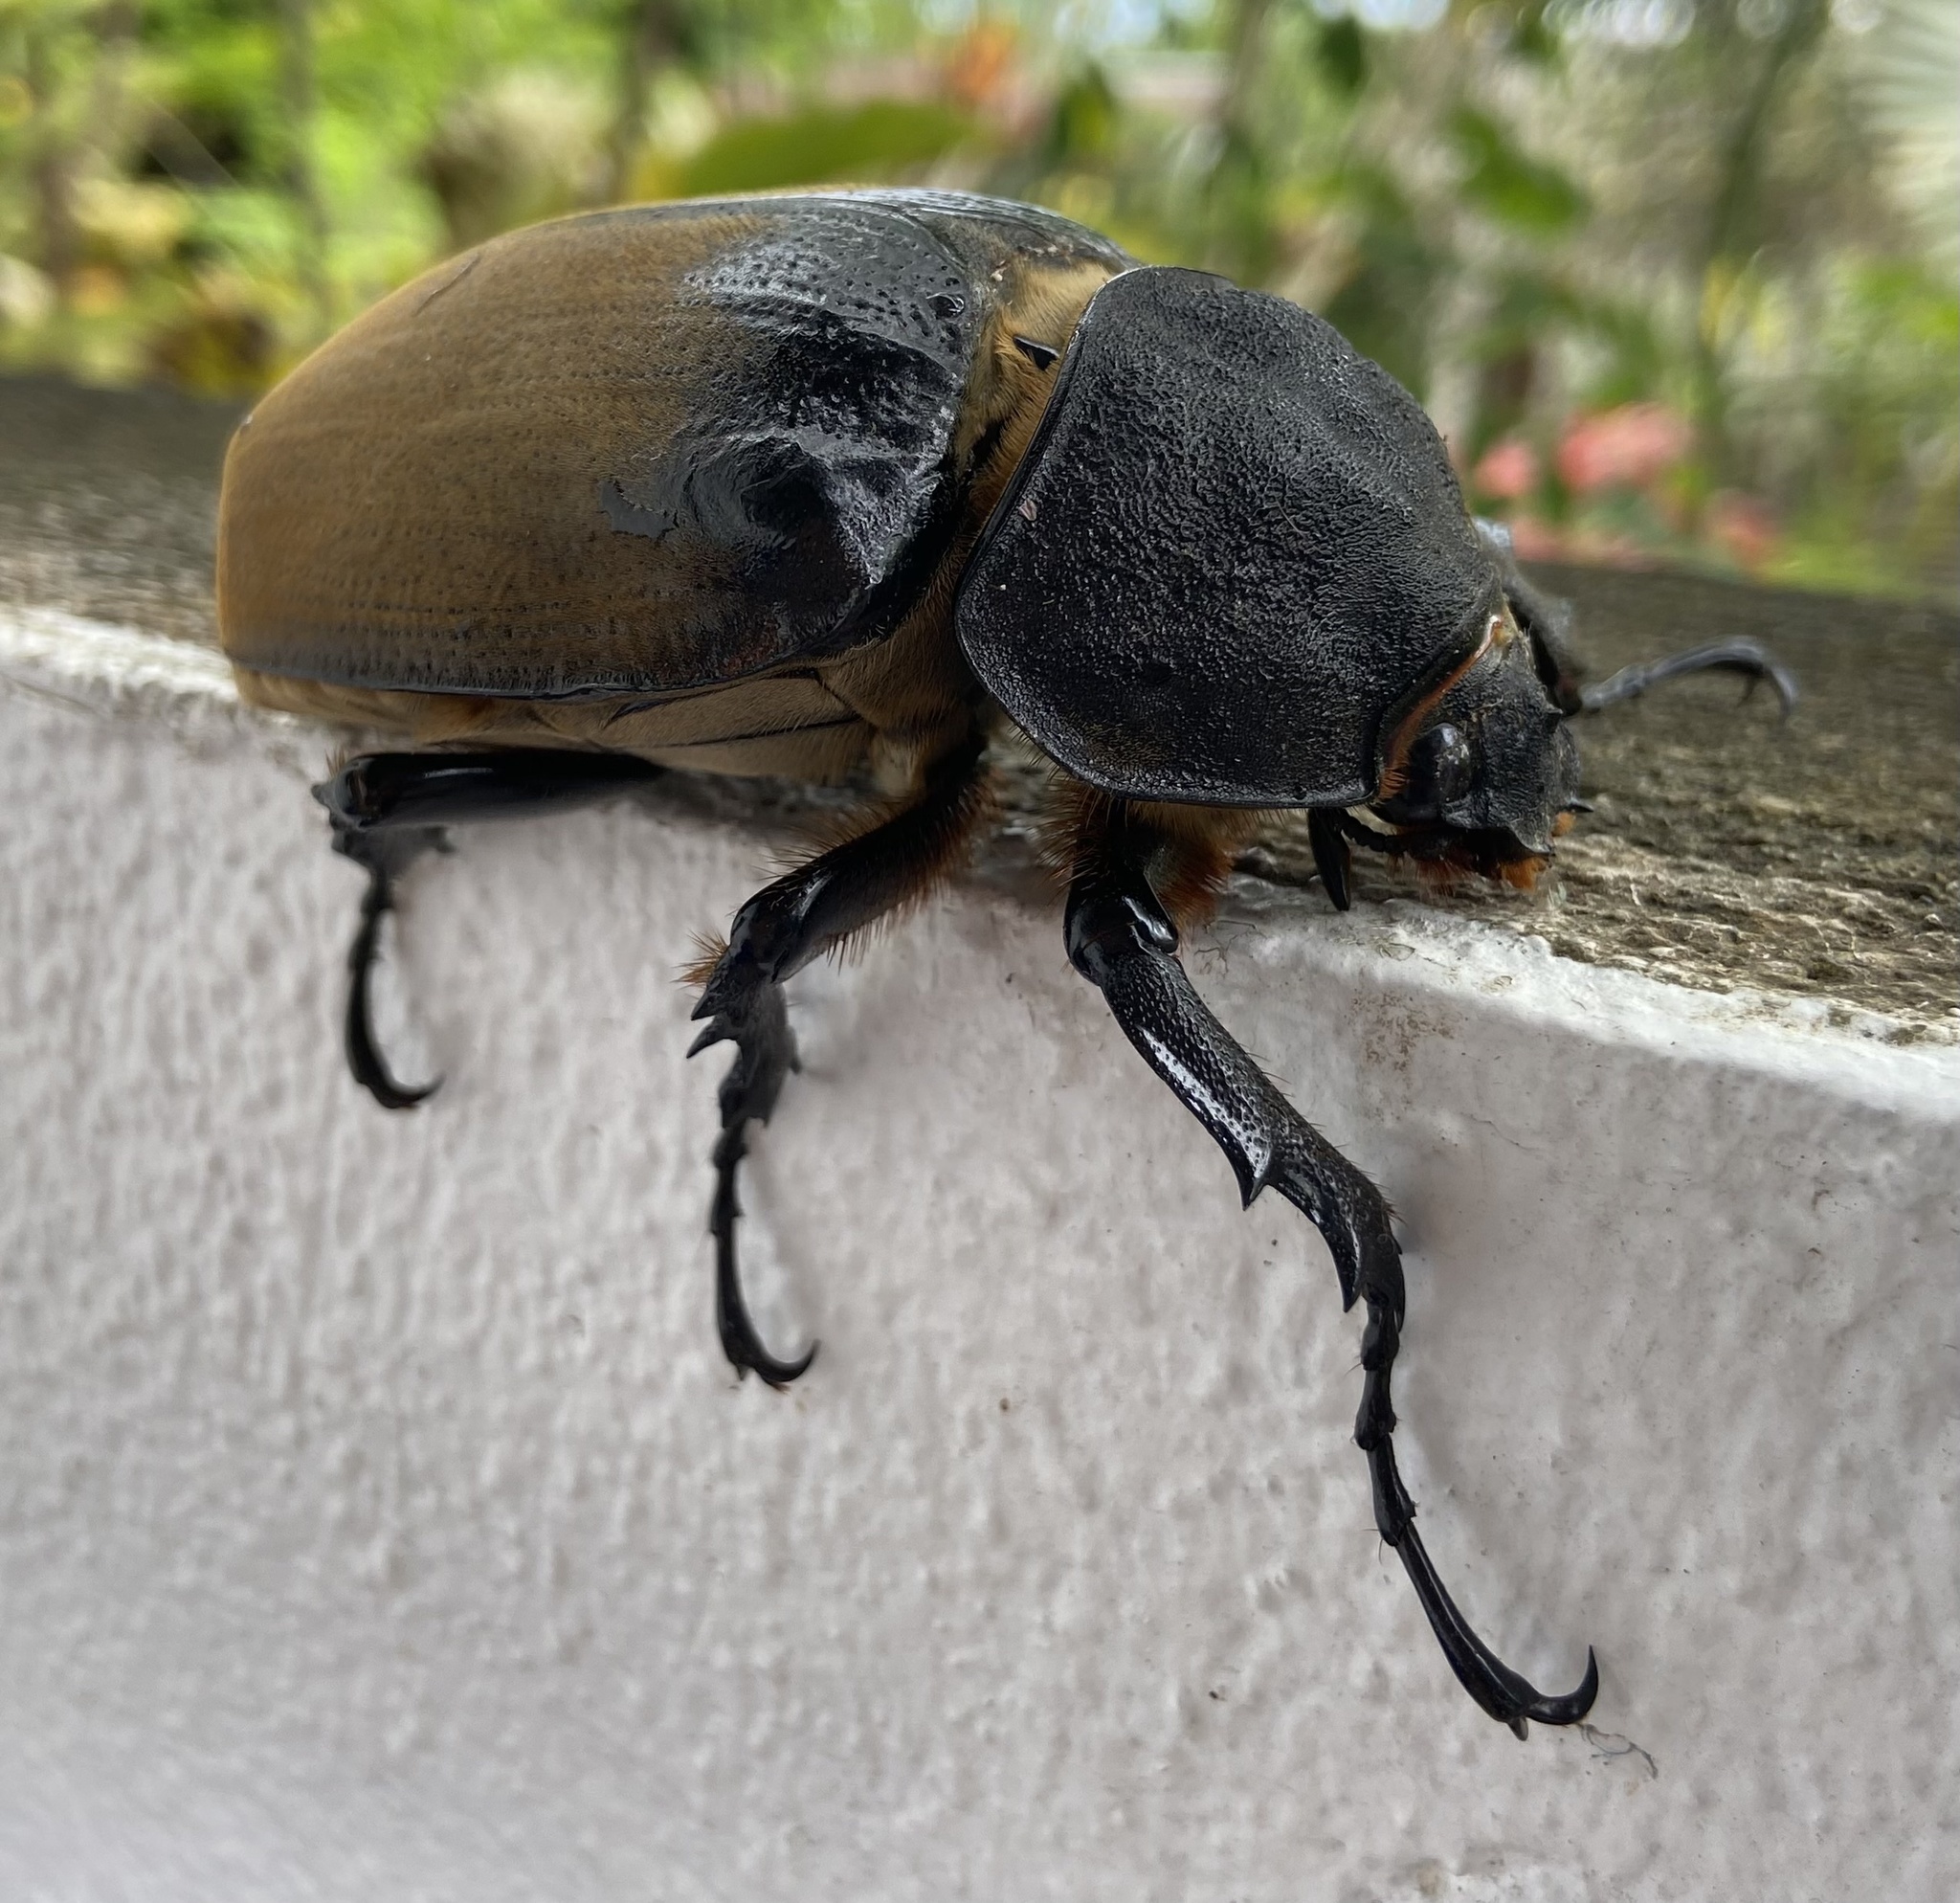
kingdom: Animalia
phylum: Arthropoda
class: Insecta
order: Coleoptera
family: Scarabaeidae
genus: Megasoma
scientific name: Megasoma elephas
